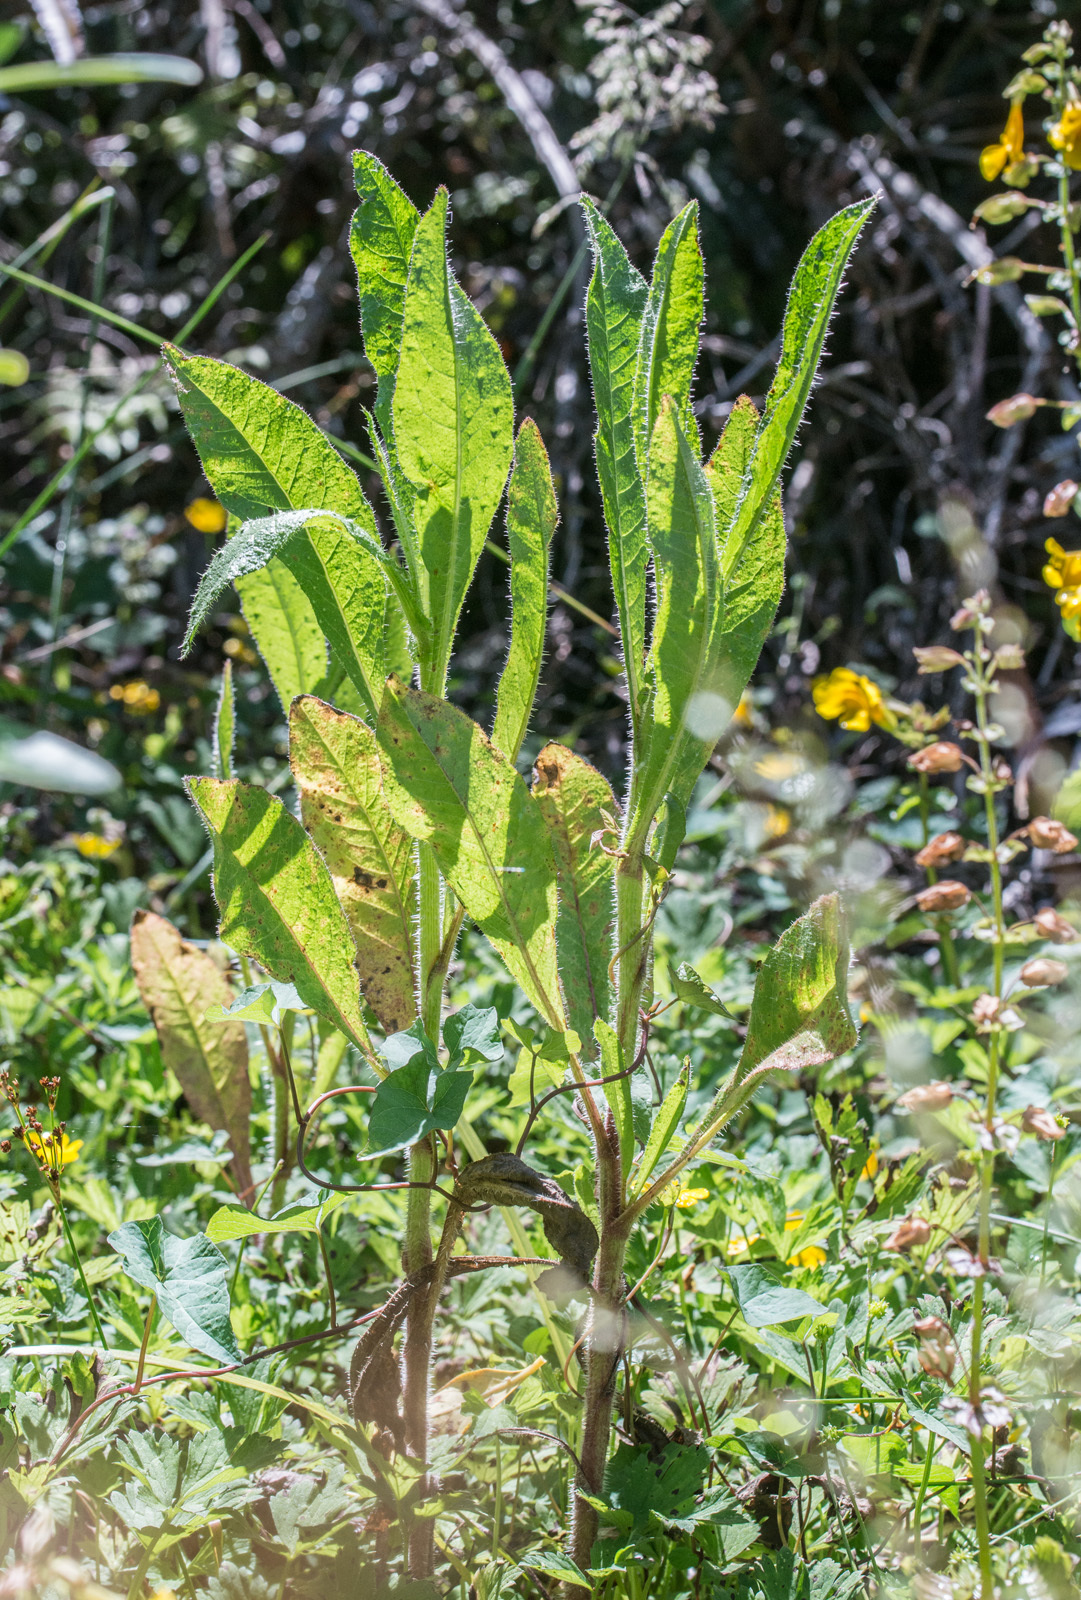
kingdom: Plantae
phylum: Tracheophyta
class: Magnoliopsida
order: Asterales
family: Asteraceae
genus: Helminthotheca
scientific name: Helminthotheca echioides
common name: Ox-tongue
